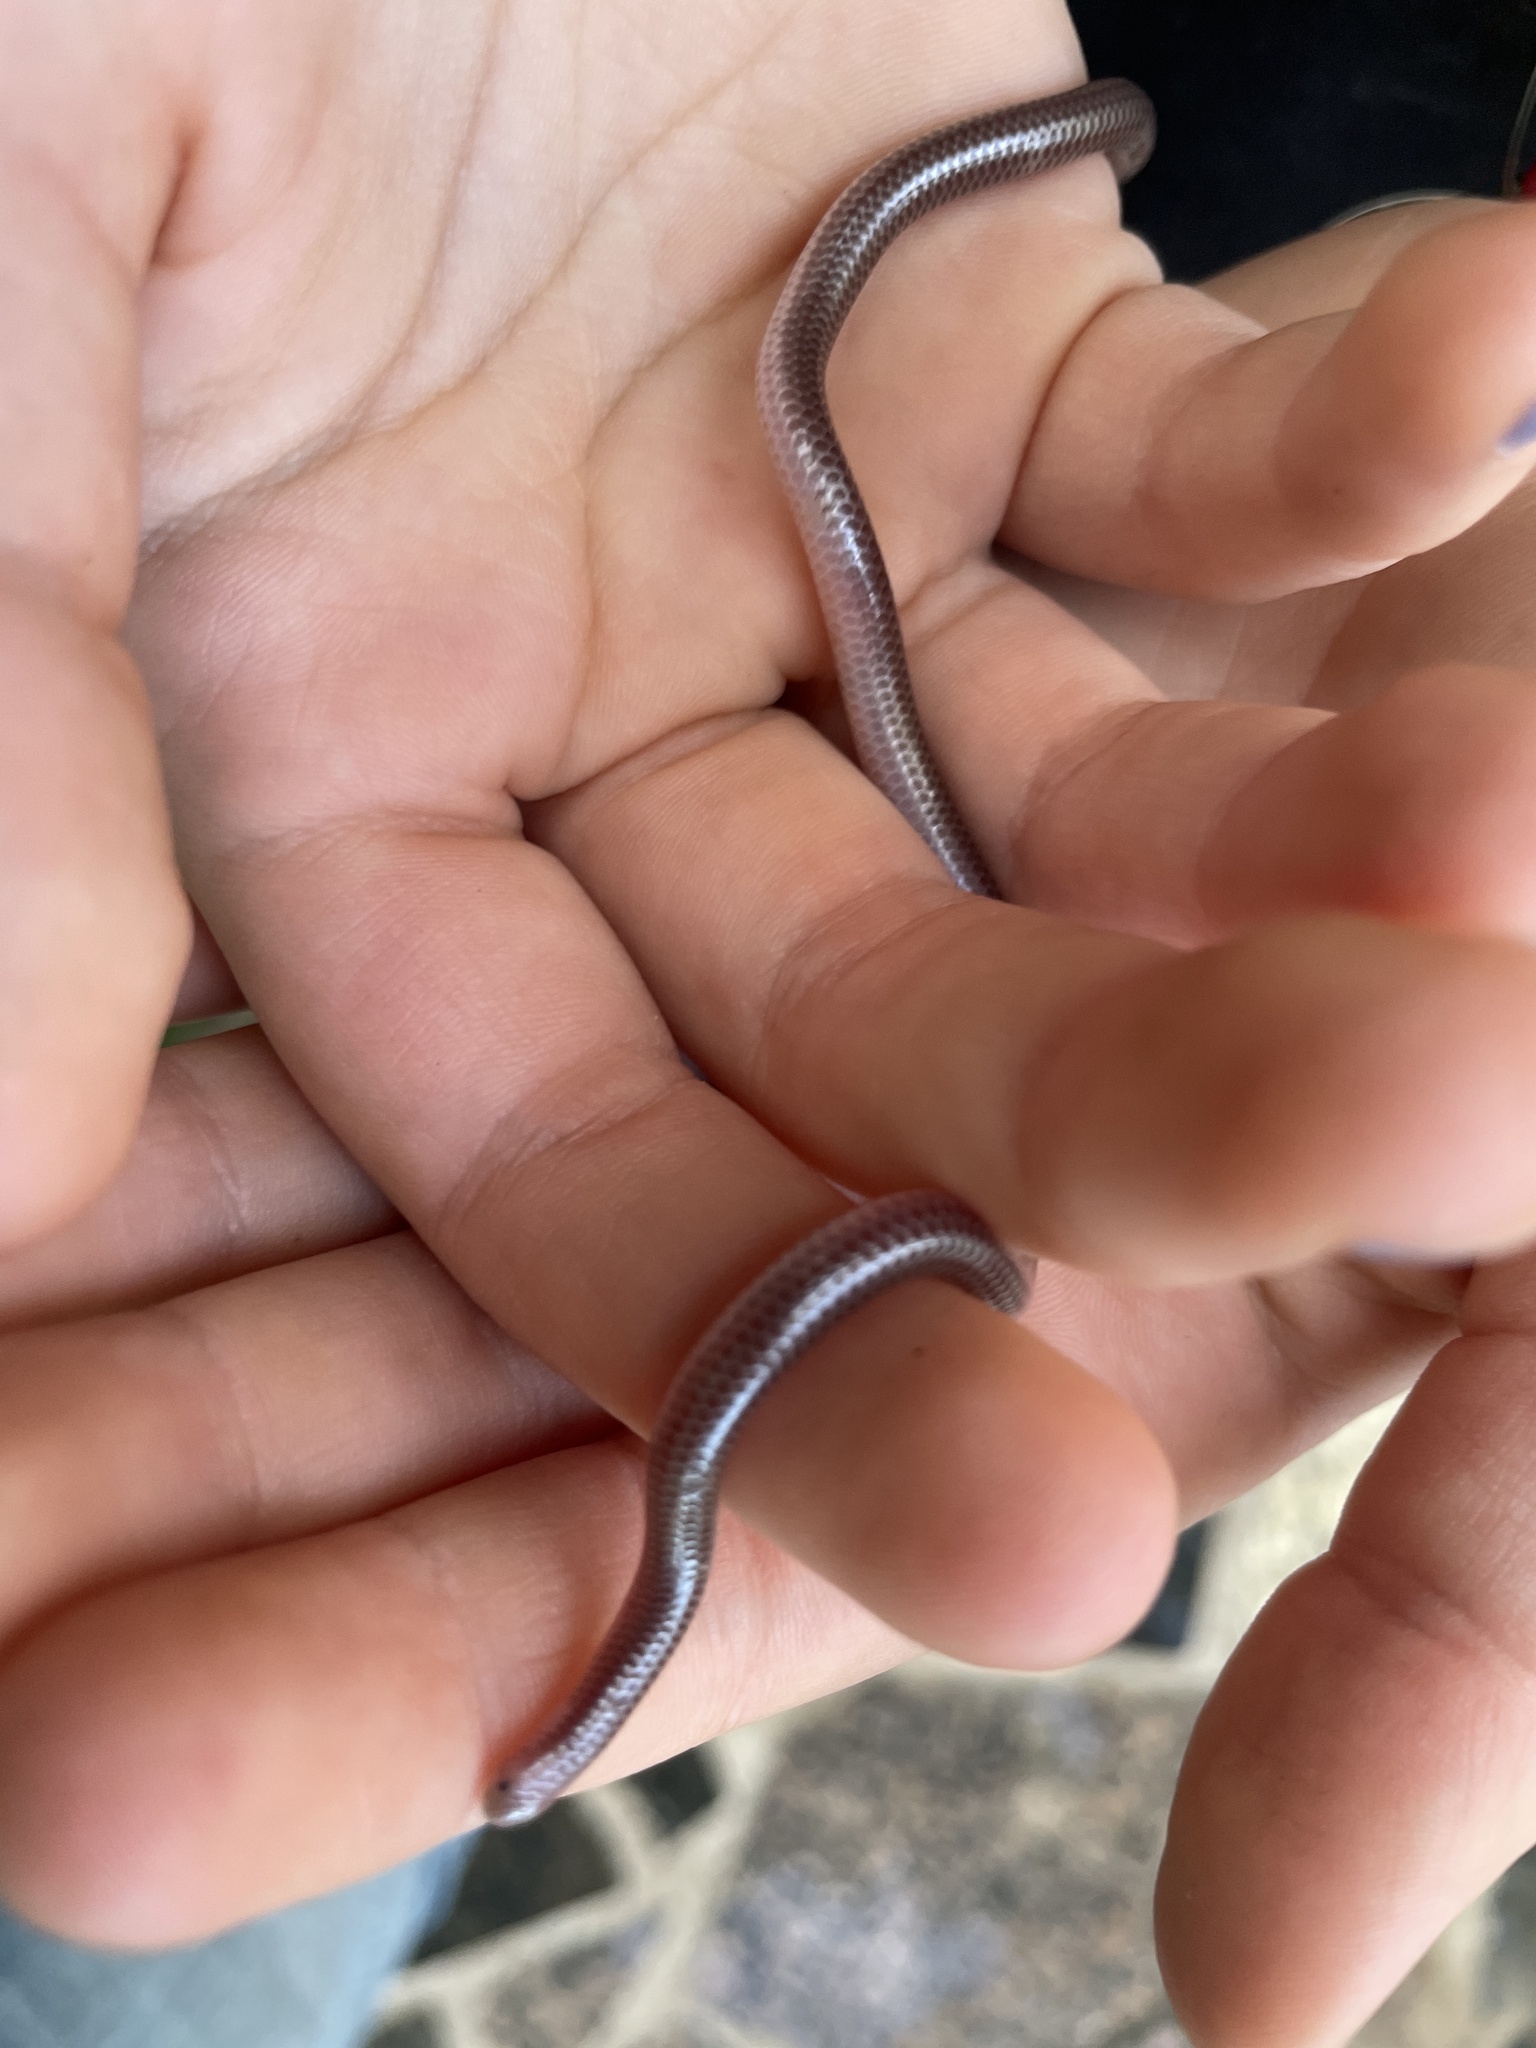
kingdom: Animalia
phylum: Chordata
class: Squamata
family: Leptotyphlopidae
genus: Rena
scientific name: Rena dulcis
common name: Texas blind snake
